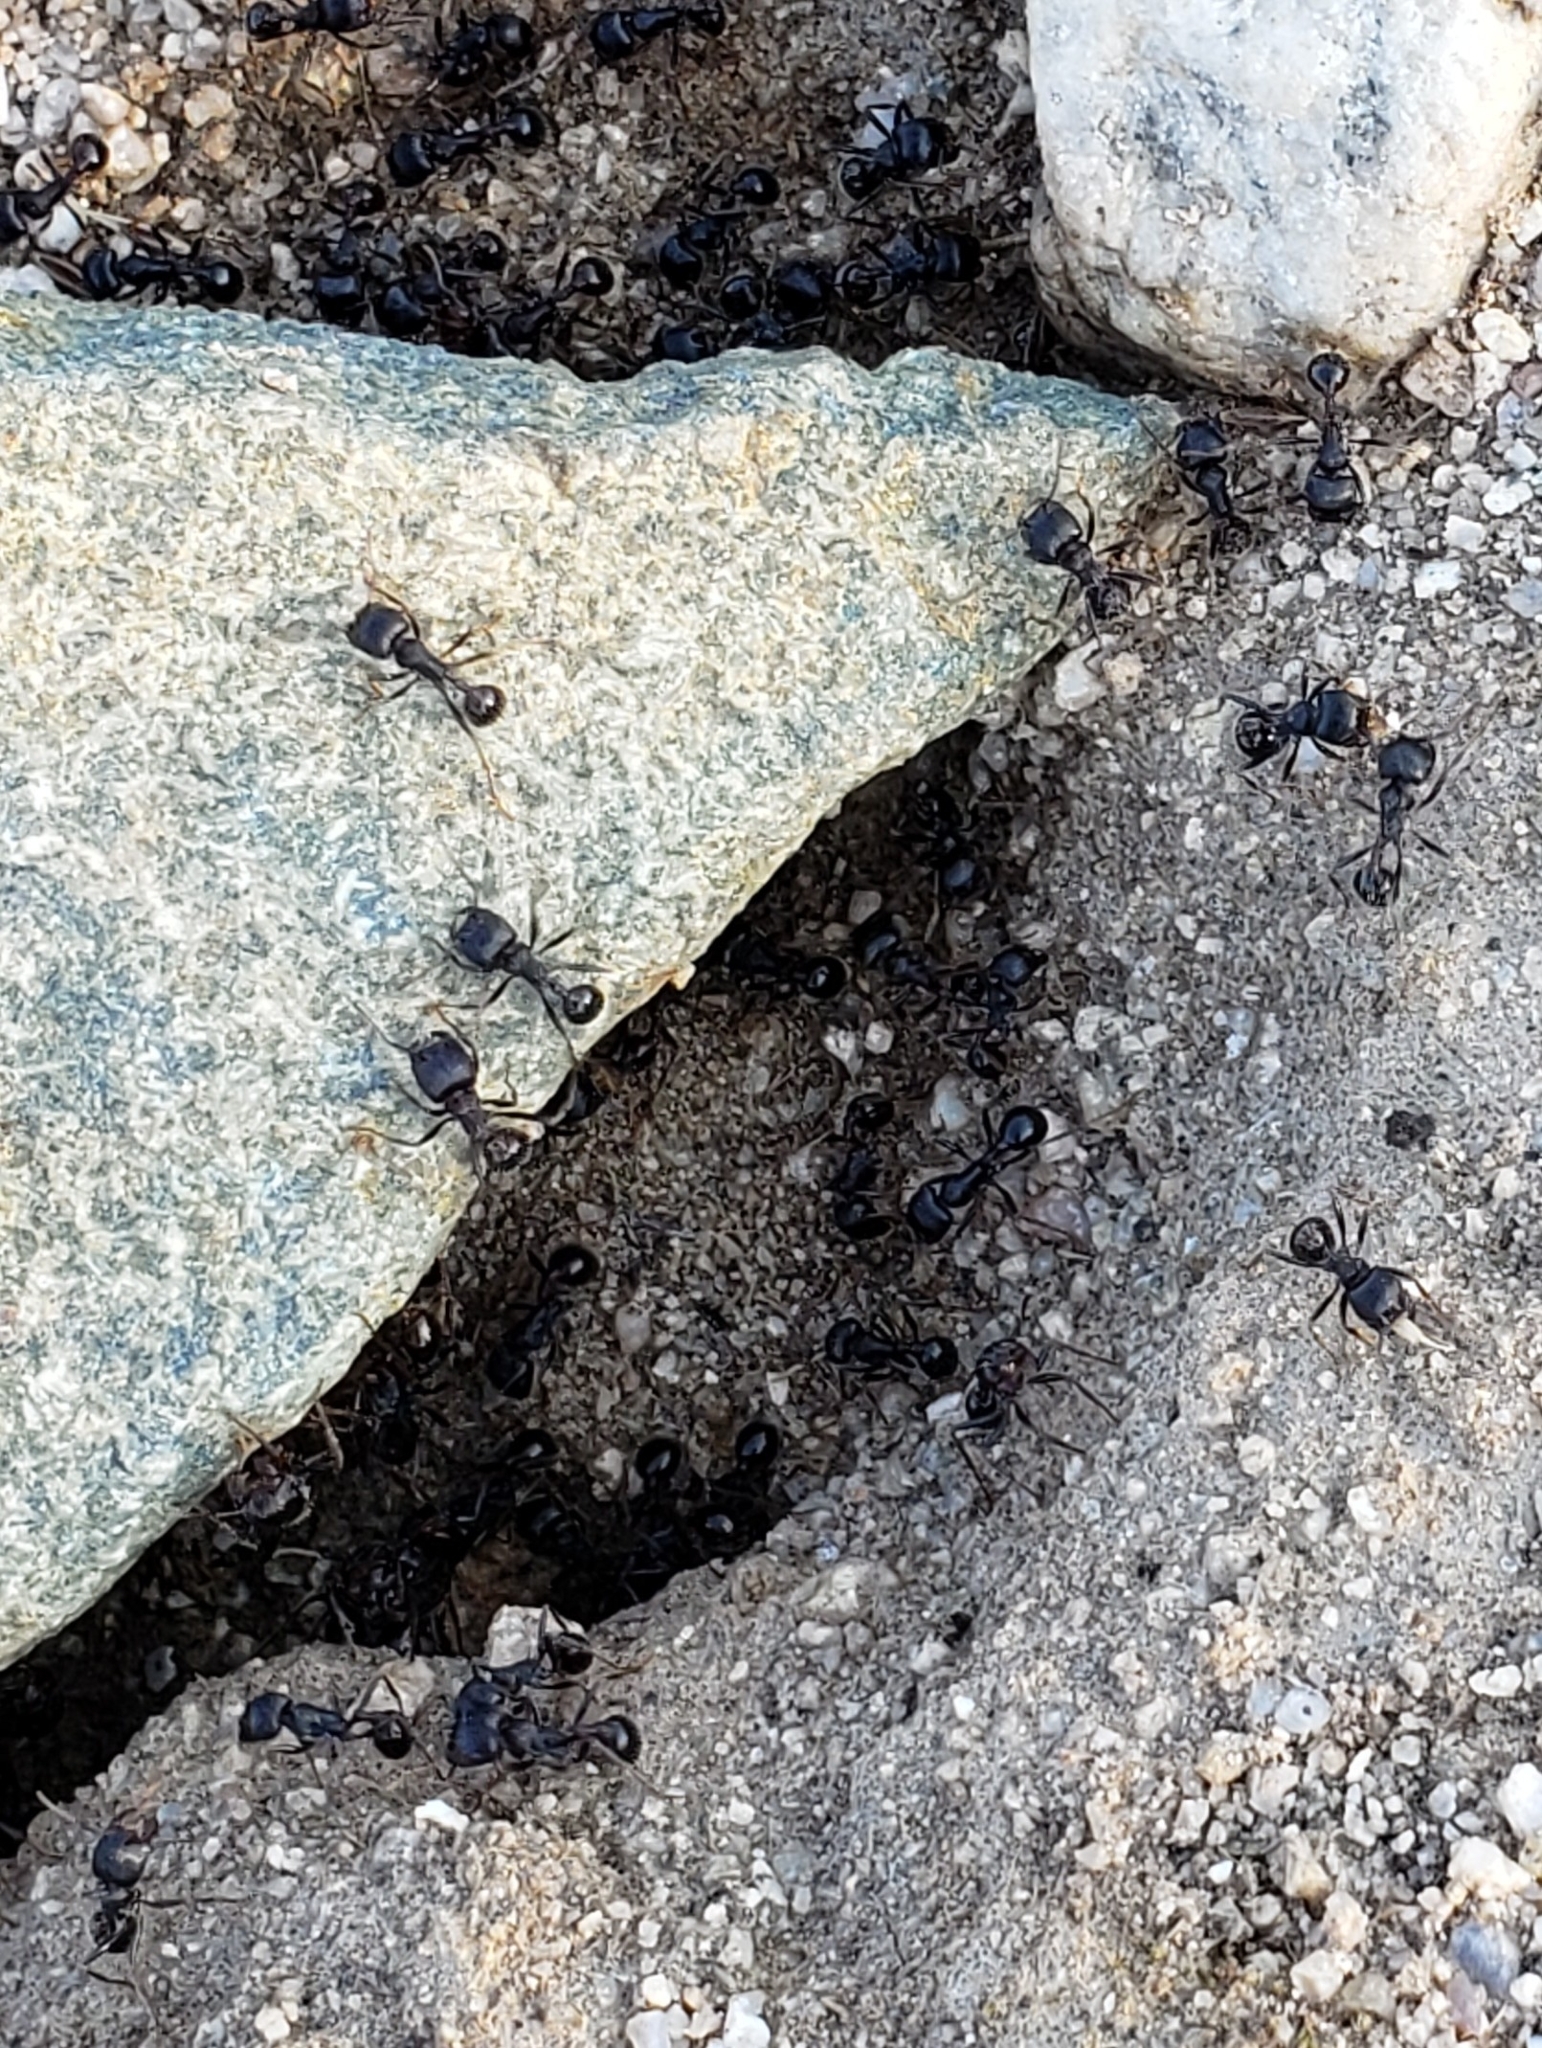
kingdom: Animalia
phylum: Arthropoda
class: Insecta
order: Hymenoptera
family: Formicidae
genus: Pogonomyrmex
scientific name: Pogonomyrmex rugosus
